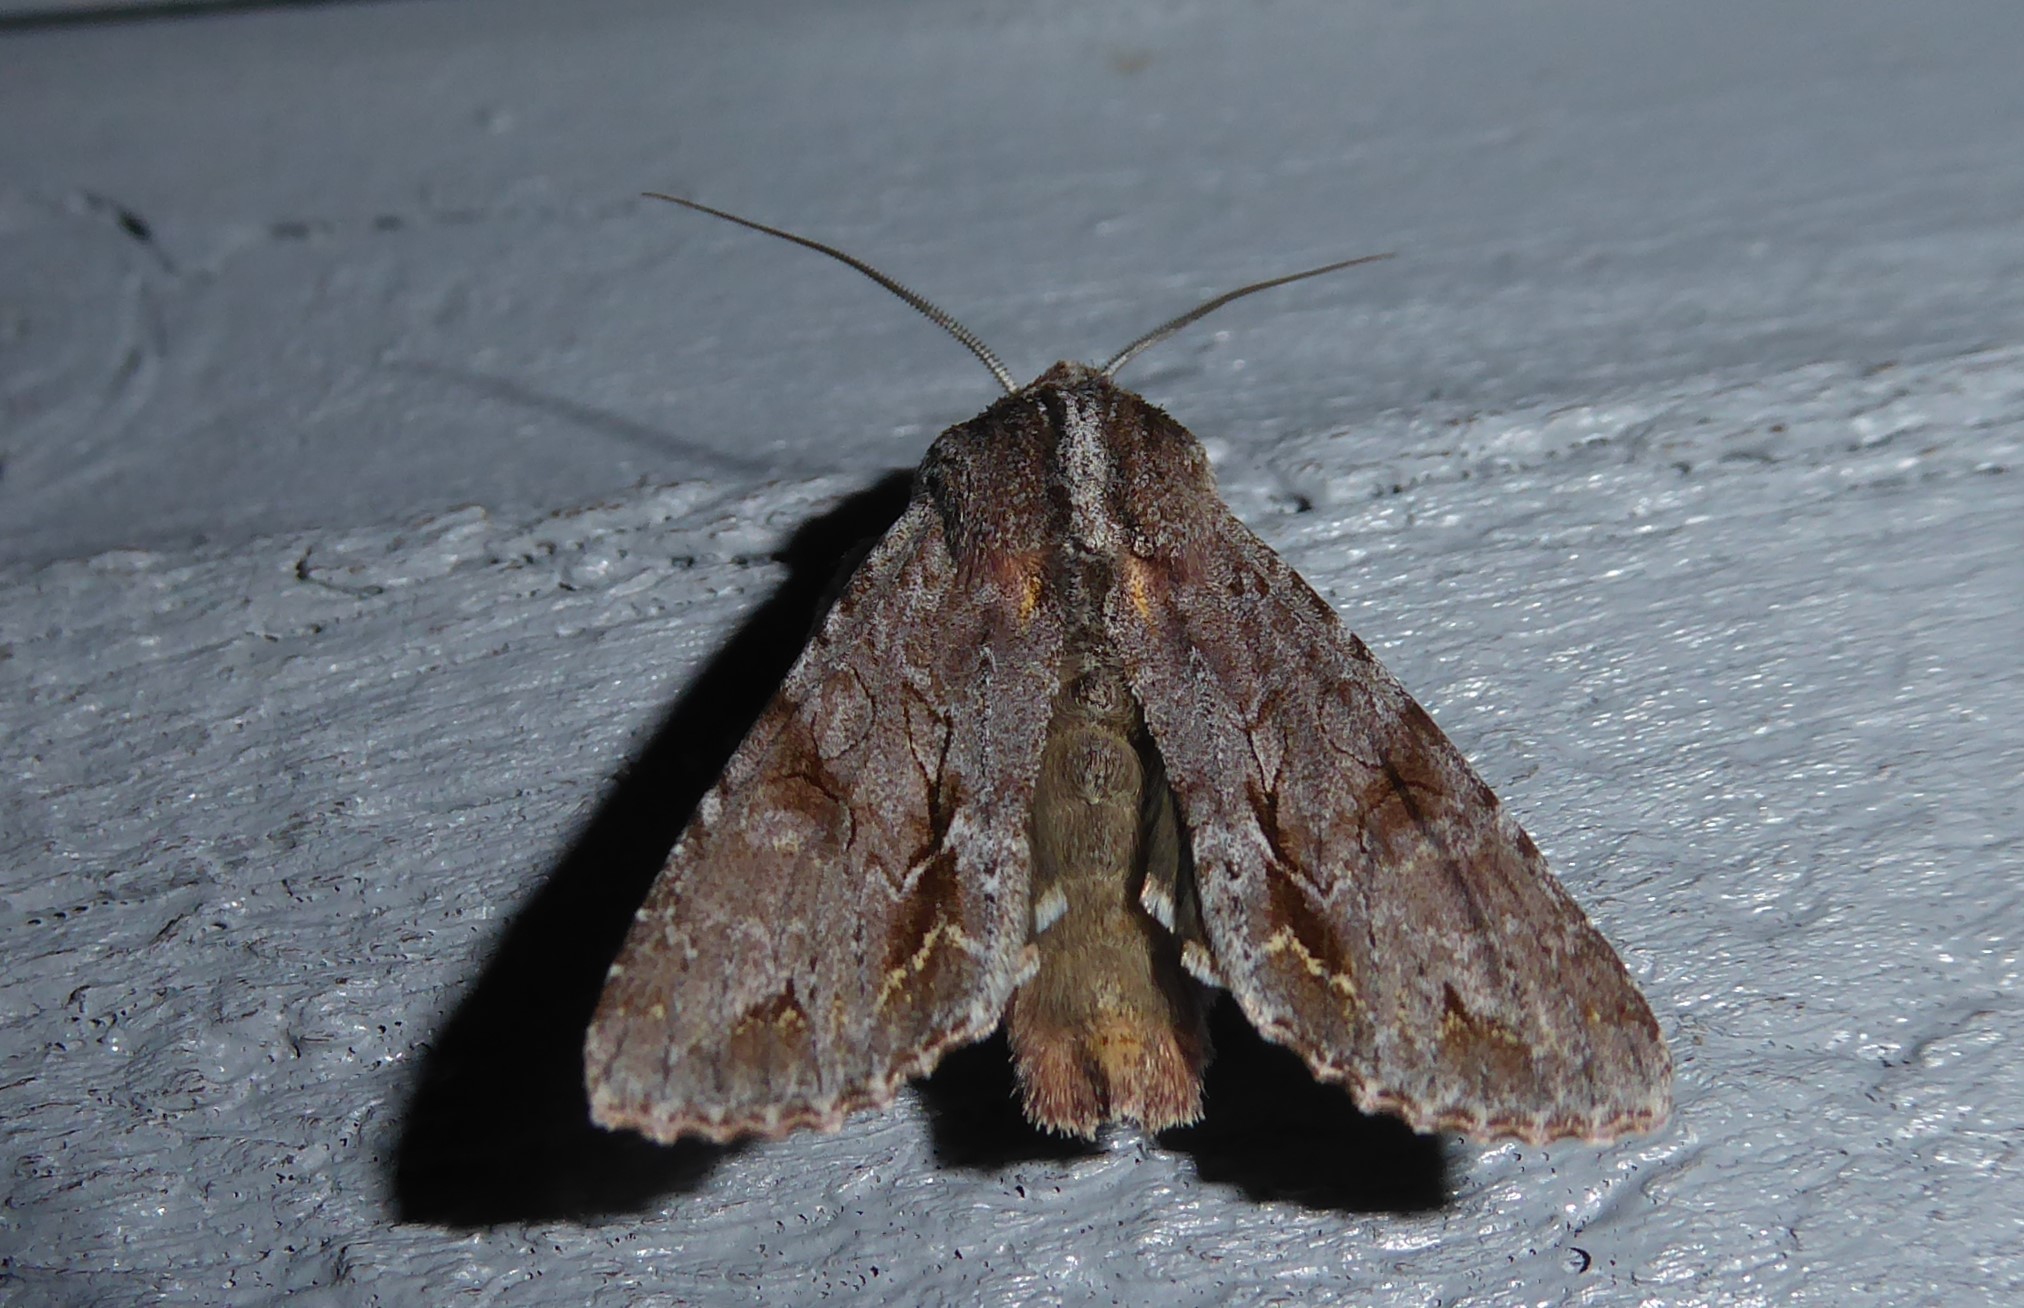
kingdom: Animalia
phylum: Arthropoda
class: Insecta
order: Lepidoptera
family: Noctuidae
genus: Ichneutica
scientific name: Ichneutica
